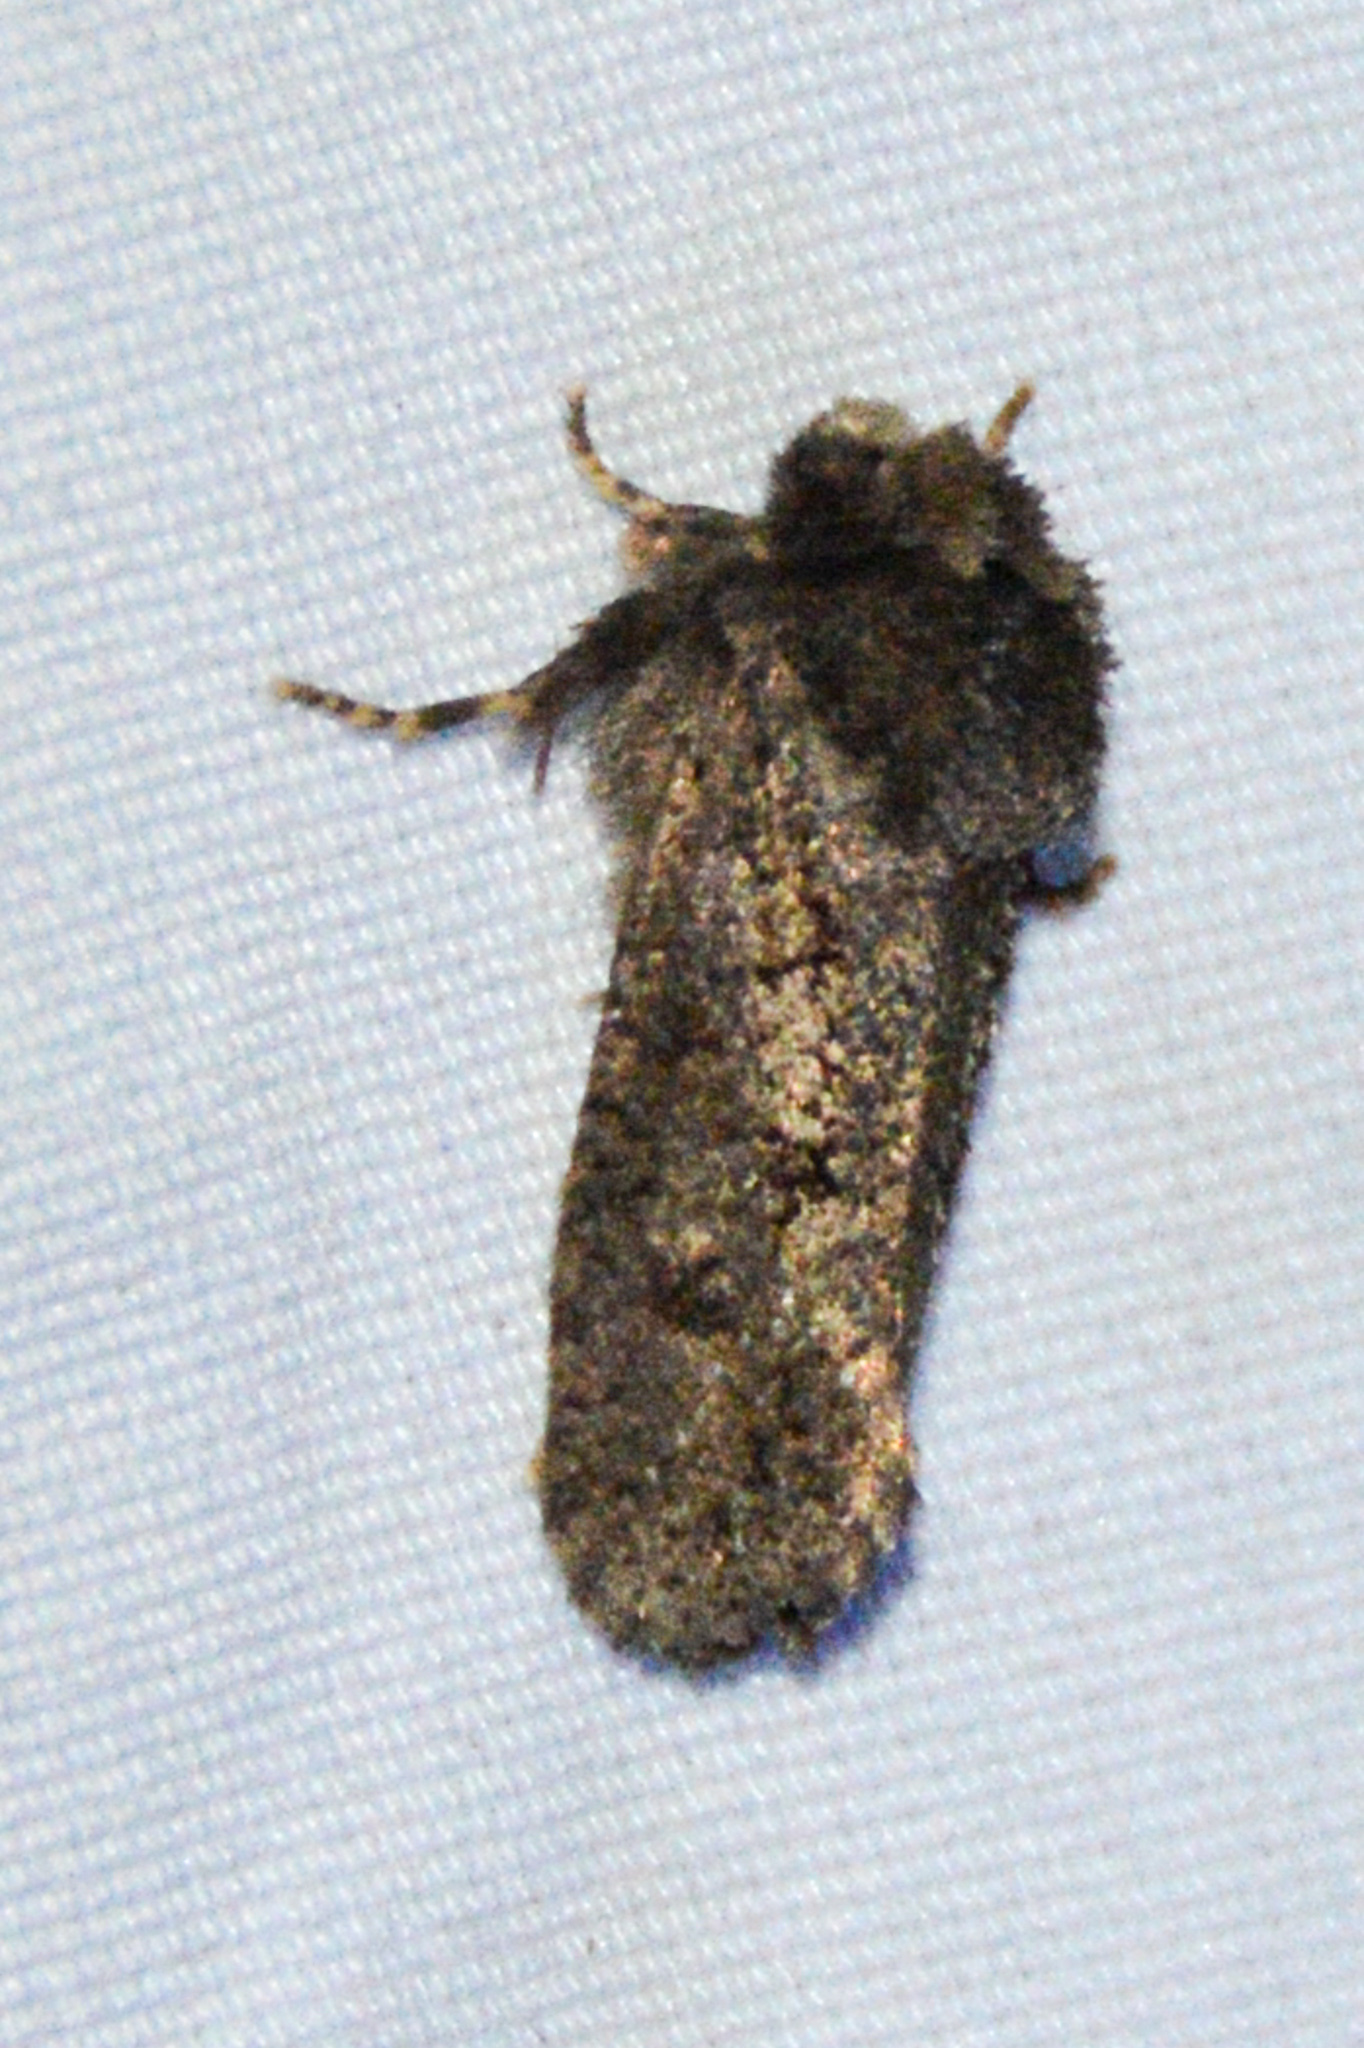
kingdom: Animalia
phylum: Arthropoda
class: Insecta
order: Lepidoptera
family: Tineidae
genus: Acrolophus
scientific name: Acrolophus arcanella
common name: Arcane grass tubeworm moth
